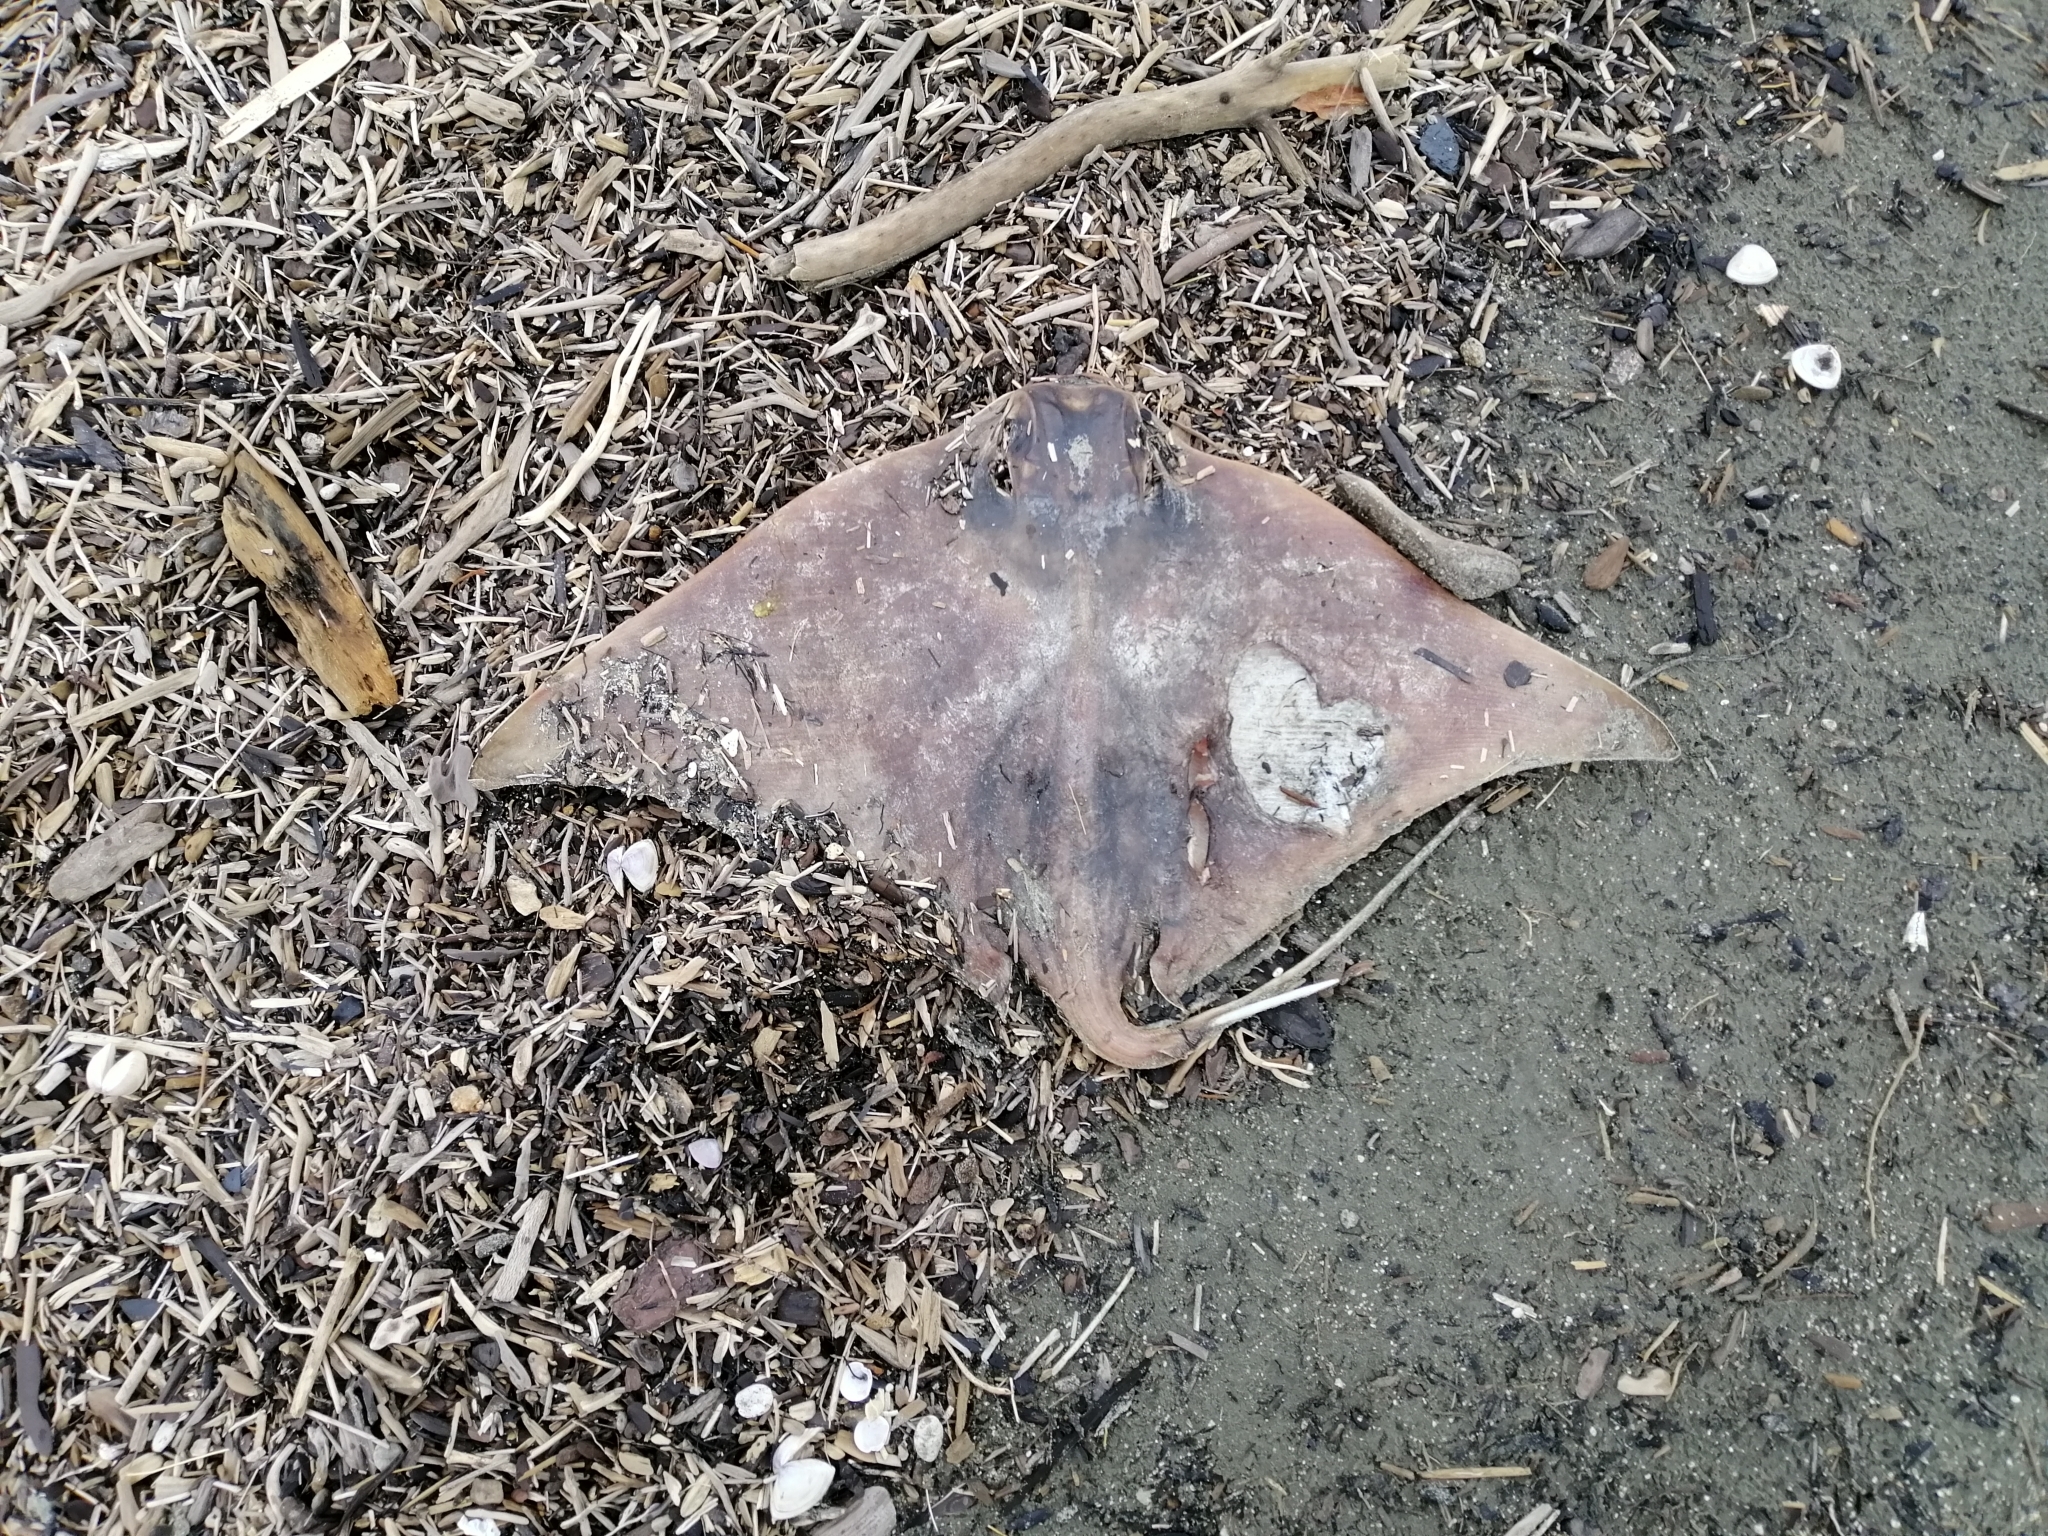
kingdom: Animalia
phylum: Chordata
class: Elasmobranchii
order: Myliobatiformes
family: Myliobatidae
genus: Myliobatis
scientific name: Myliobatis tenuicaudatus
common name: Eagle ray
